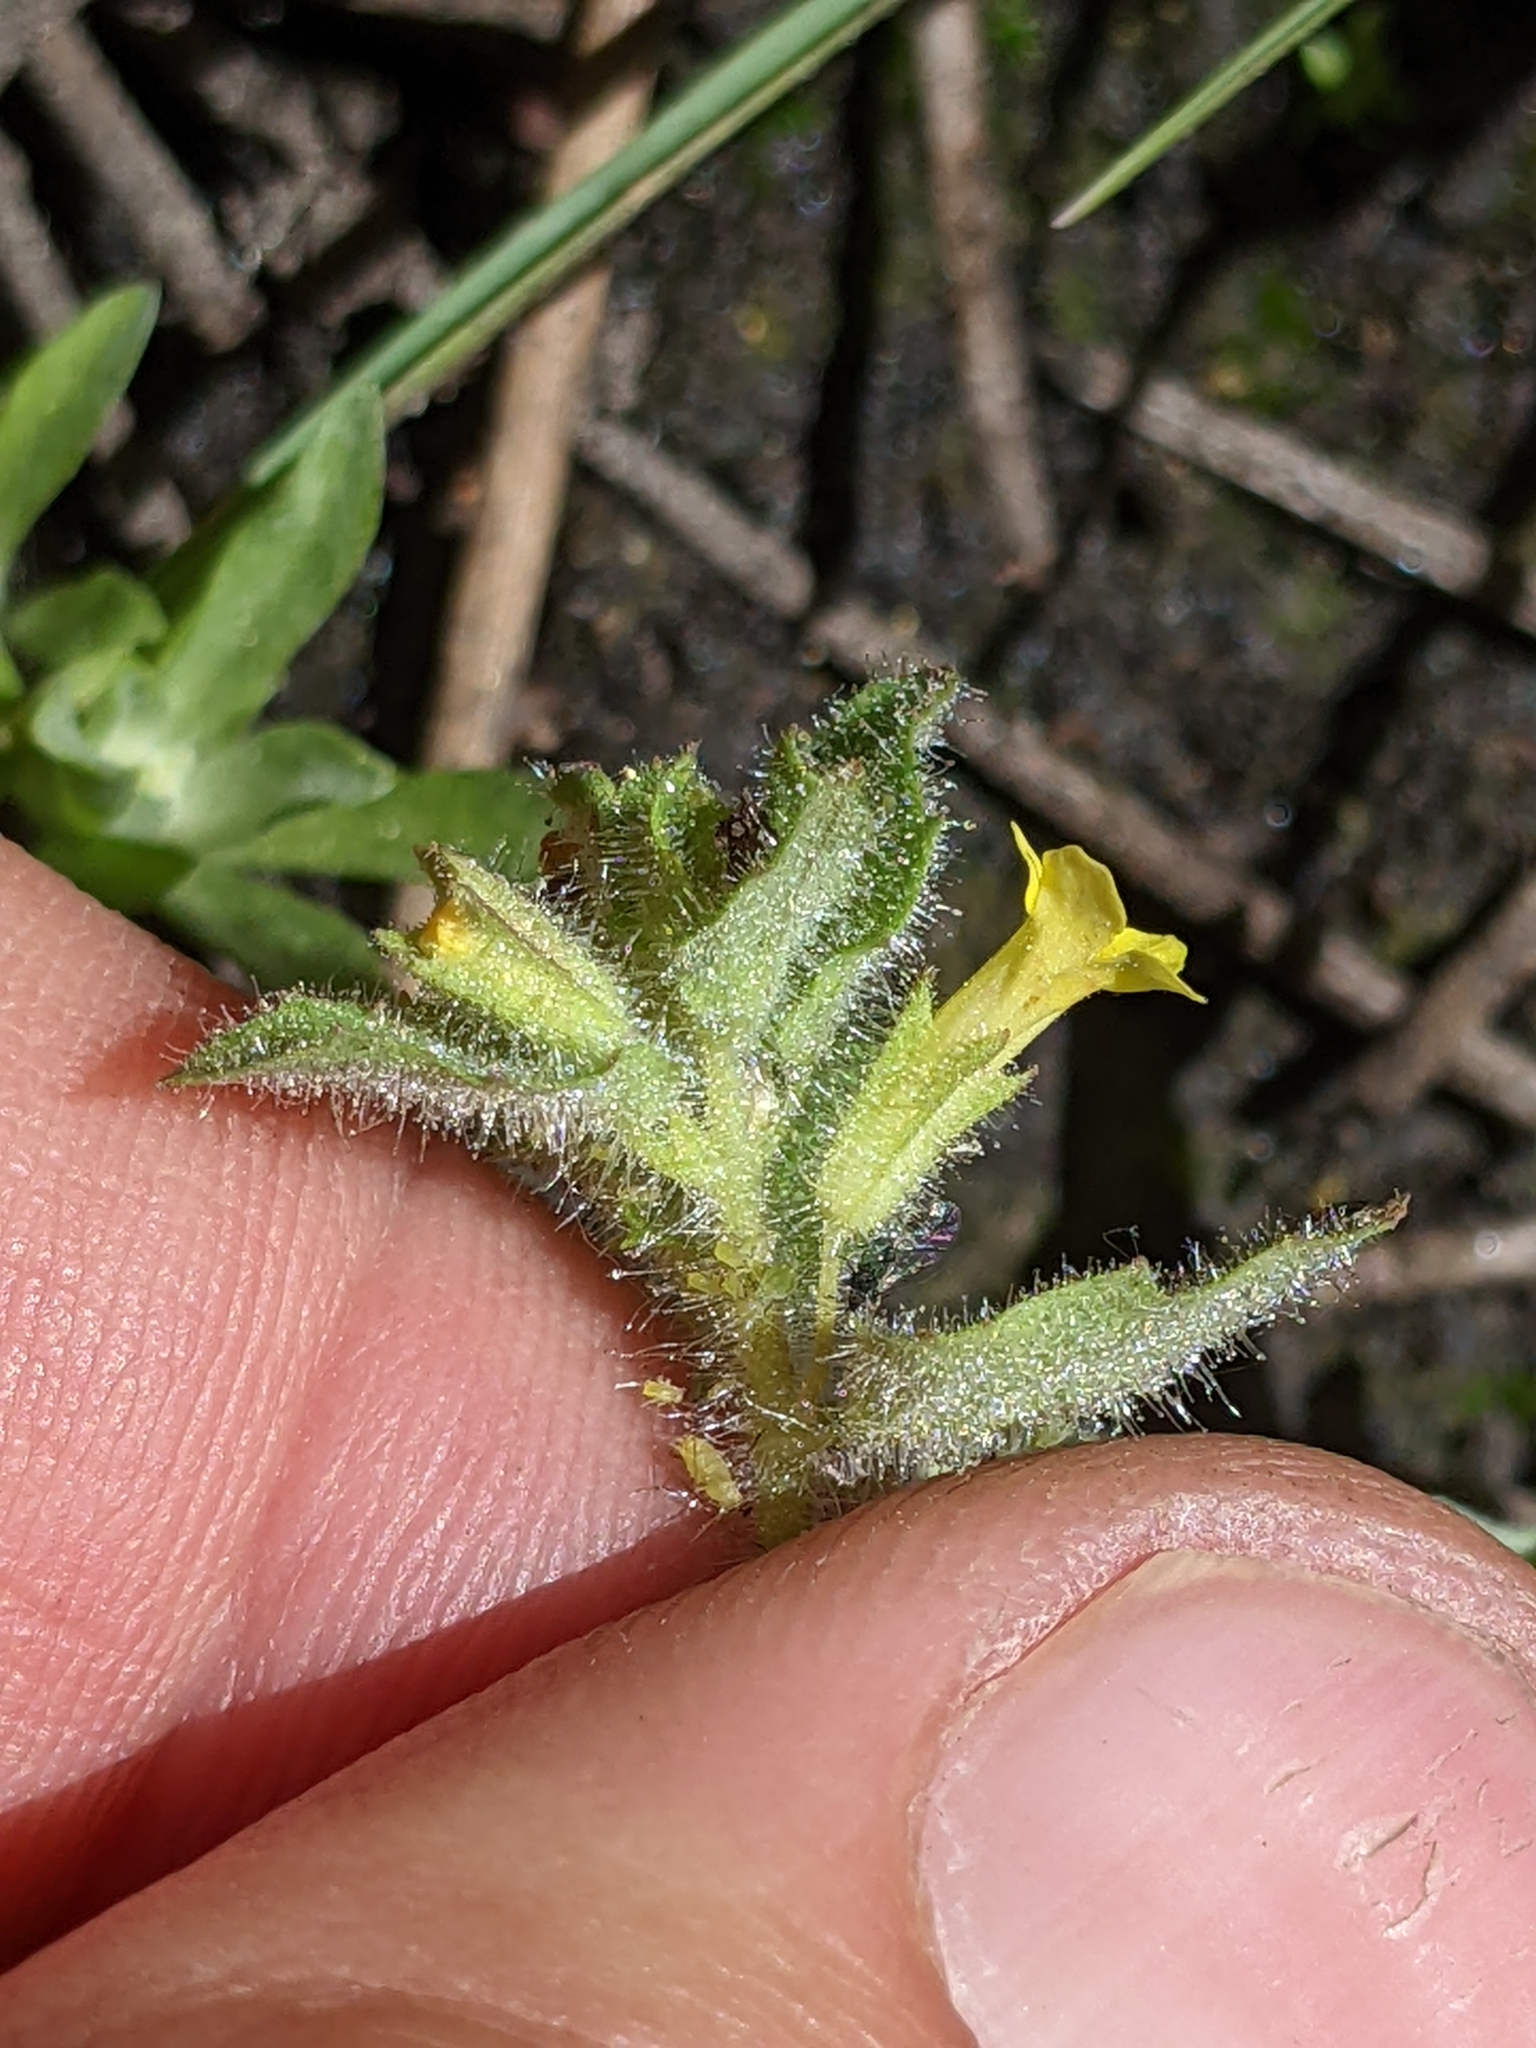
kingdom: Plantae
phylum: Tracheophyta
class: Magnoliopsida
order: Lamiales
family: Phrymaceae
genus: Erythranthe
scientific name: Erythranthe floribunda
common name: Floriferous monkeyflower
